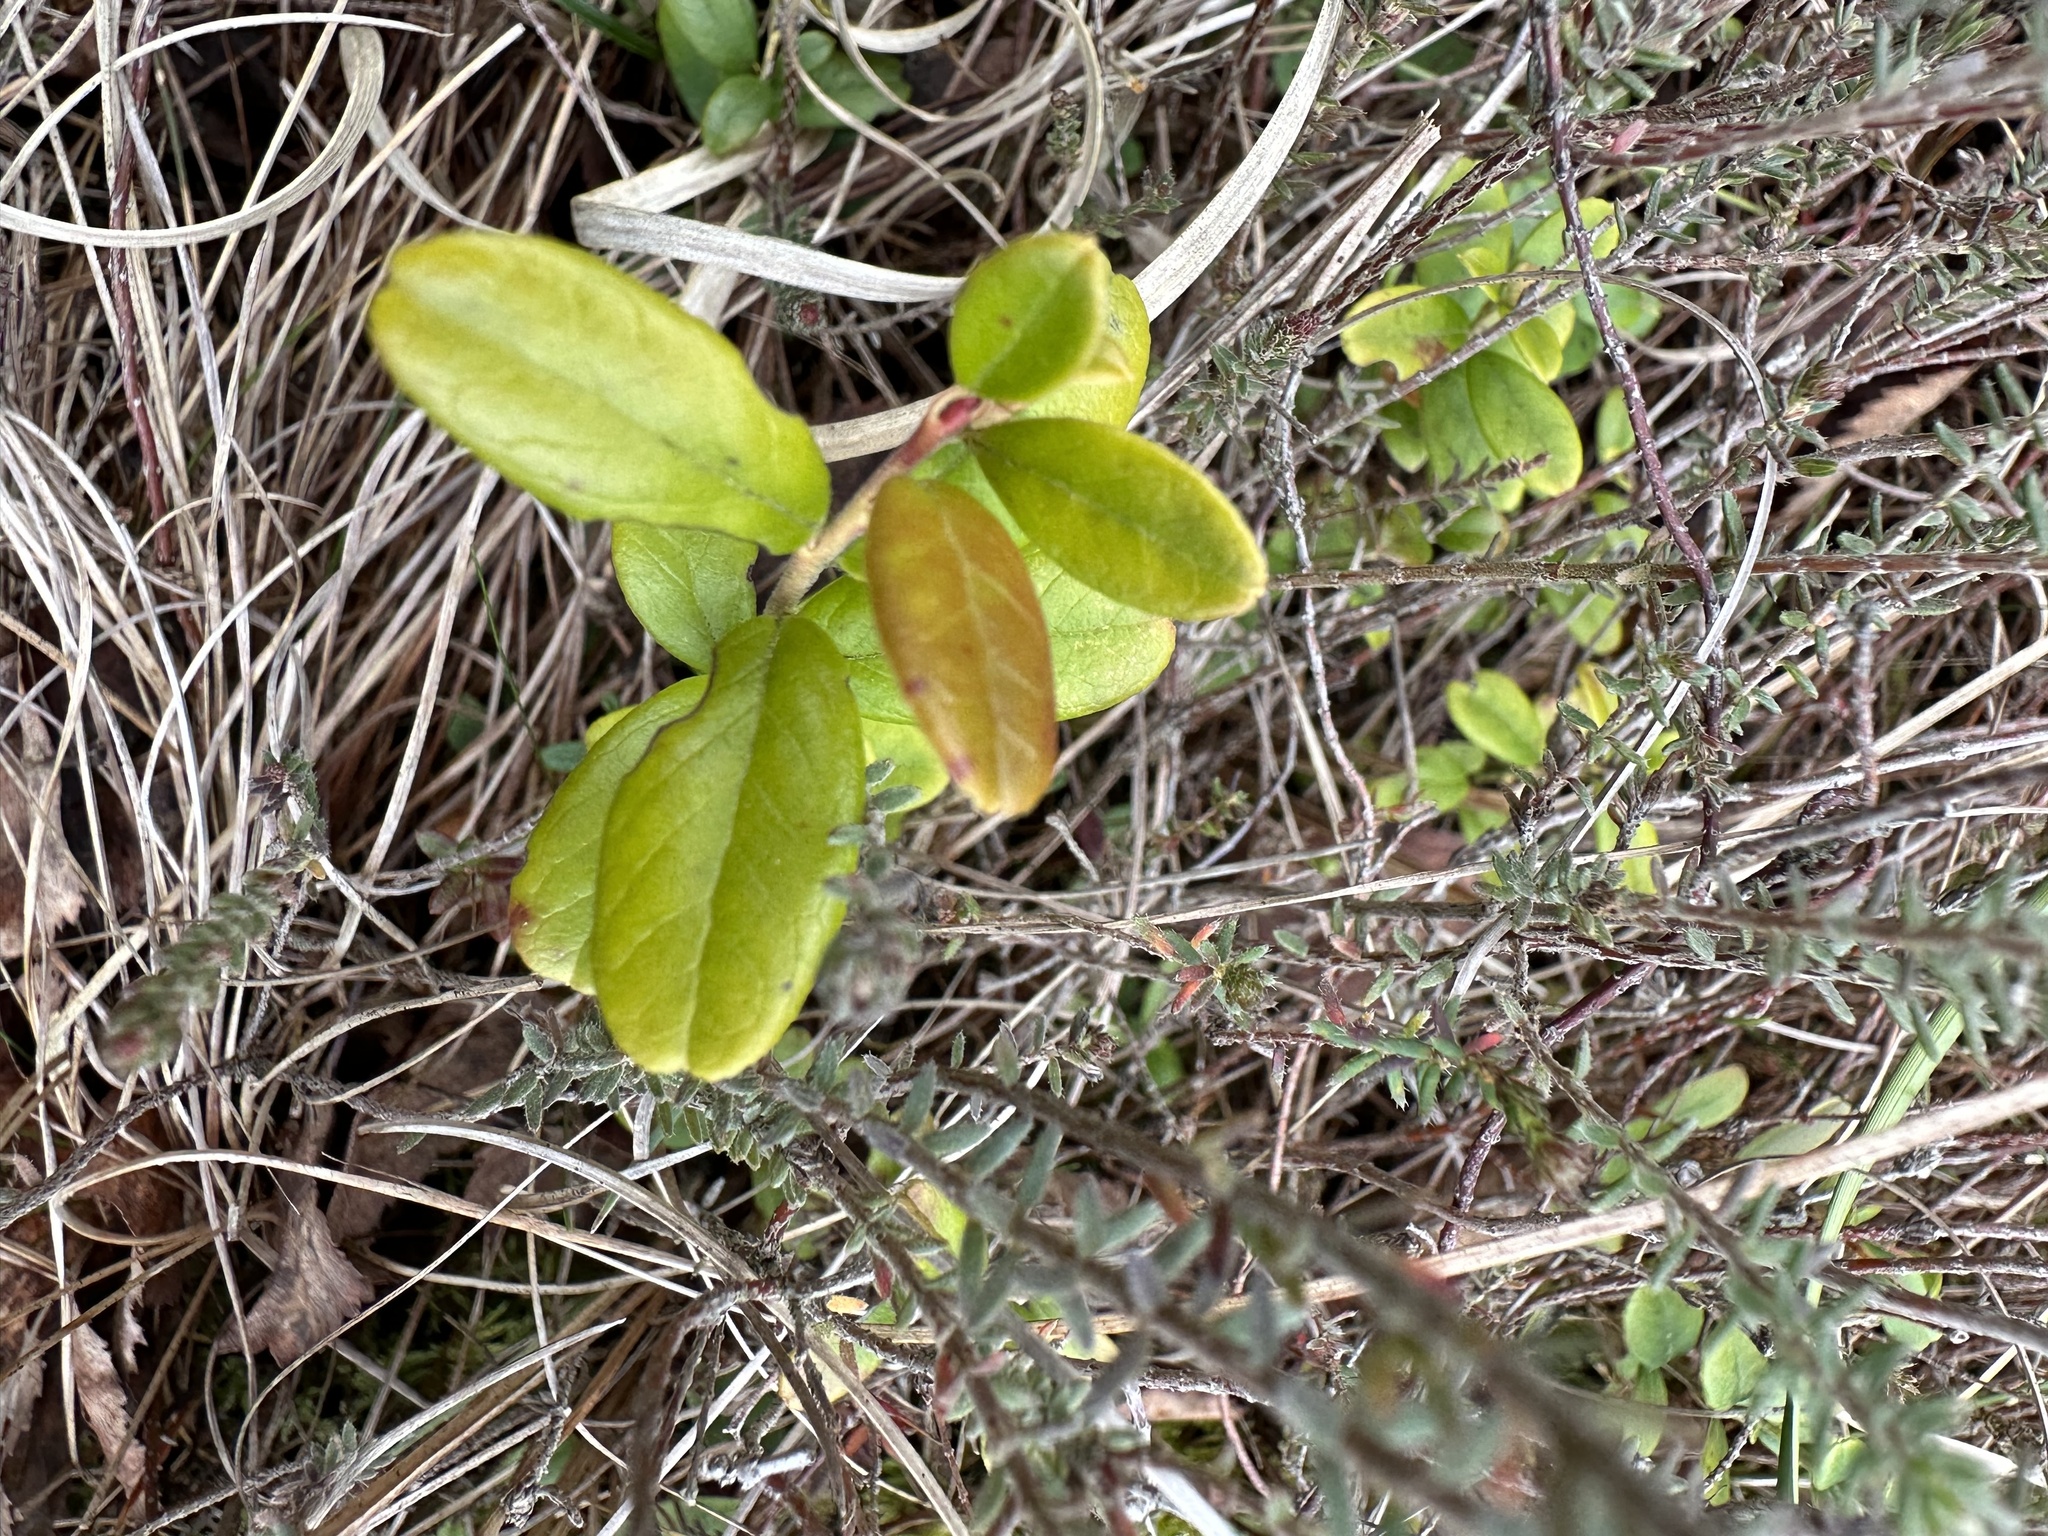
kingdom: Plantae
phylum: Tracheophyta
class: Magnoliopsida
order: Ericales
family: Ericaceae
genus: Vaccinium
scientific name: Vaccinium vitis-idaea
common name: Cowberry
